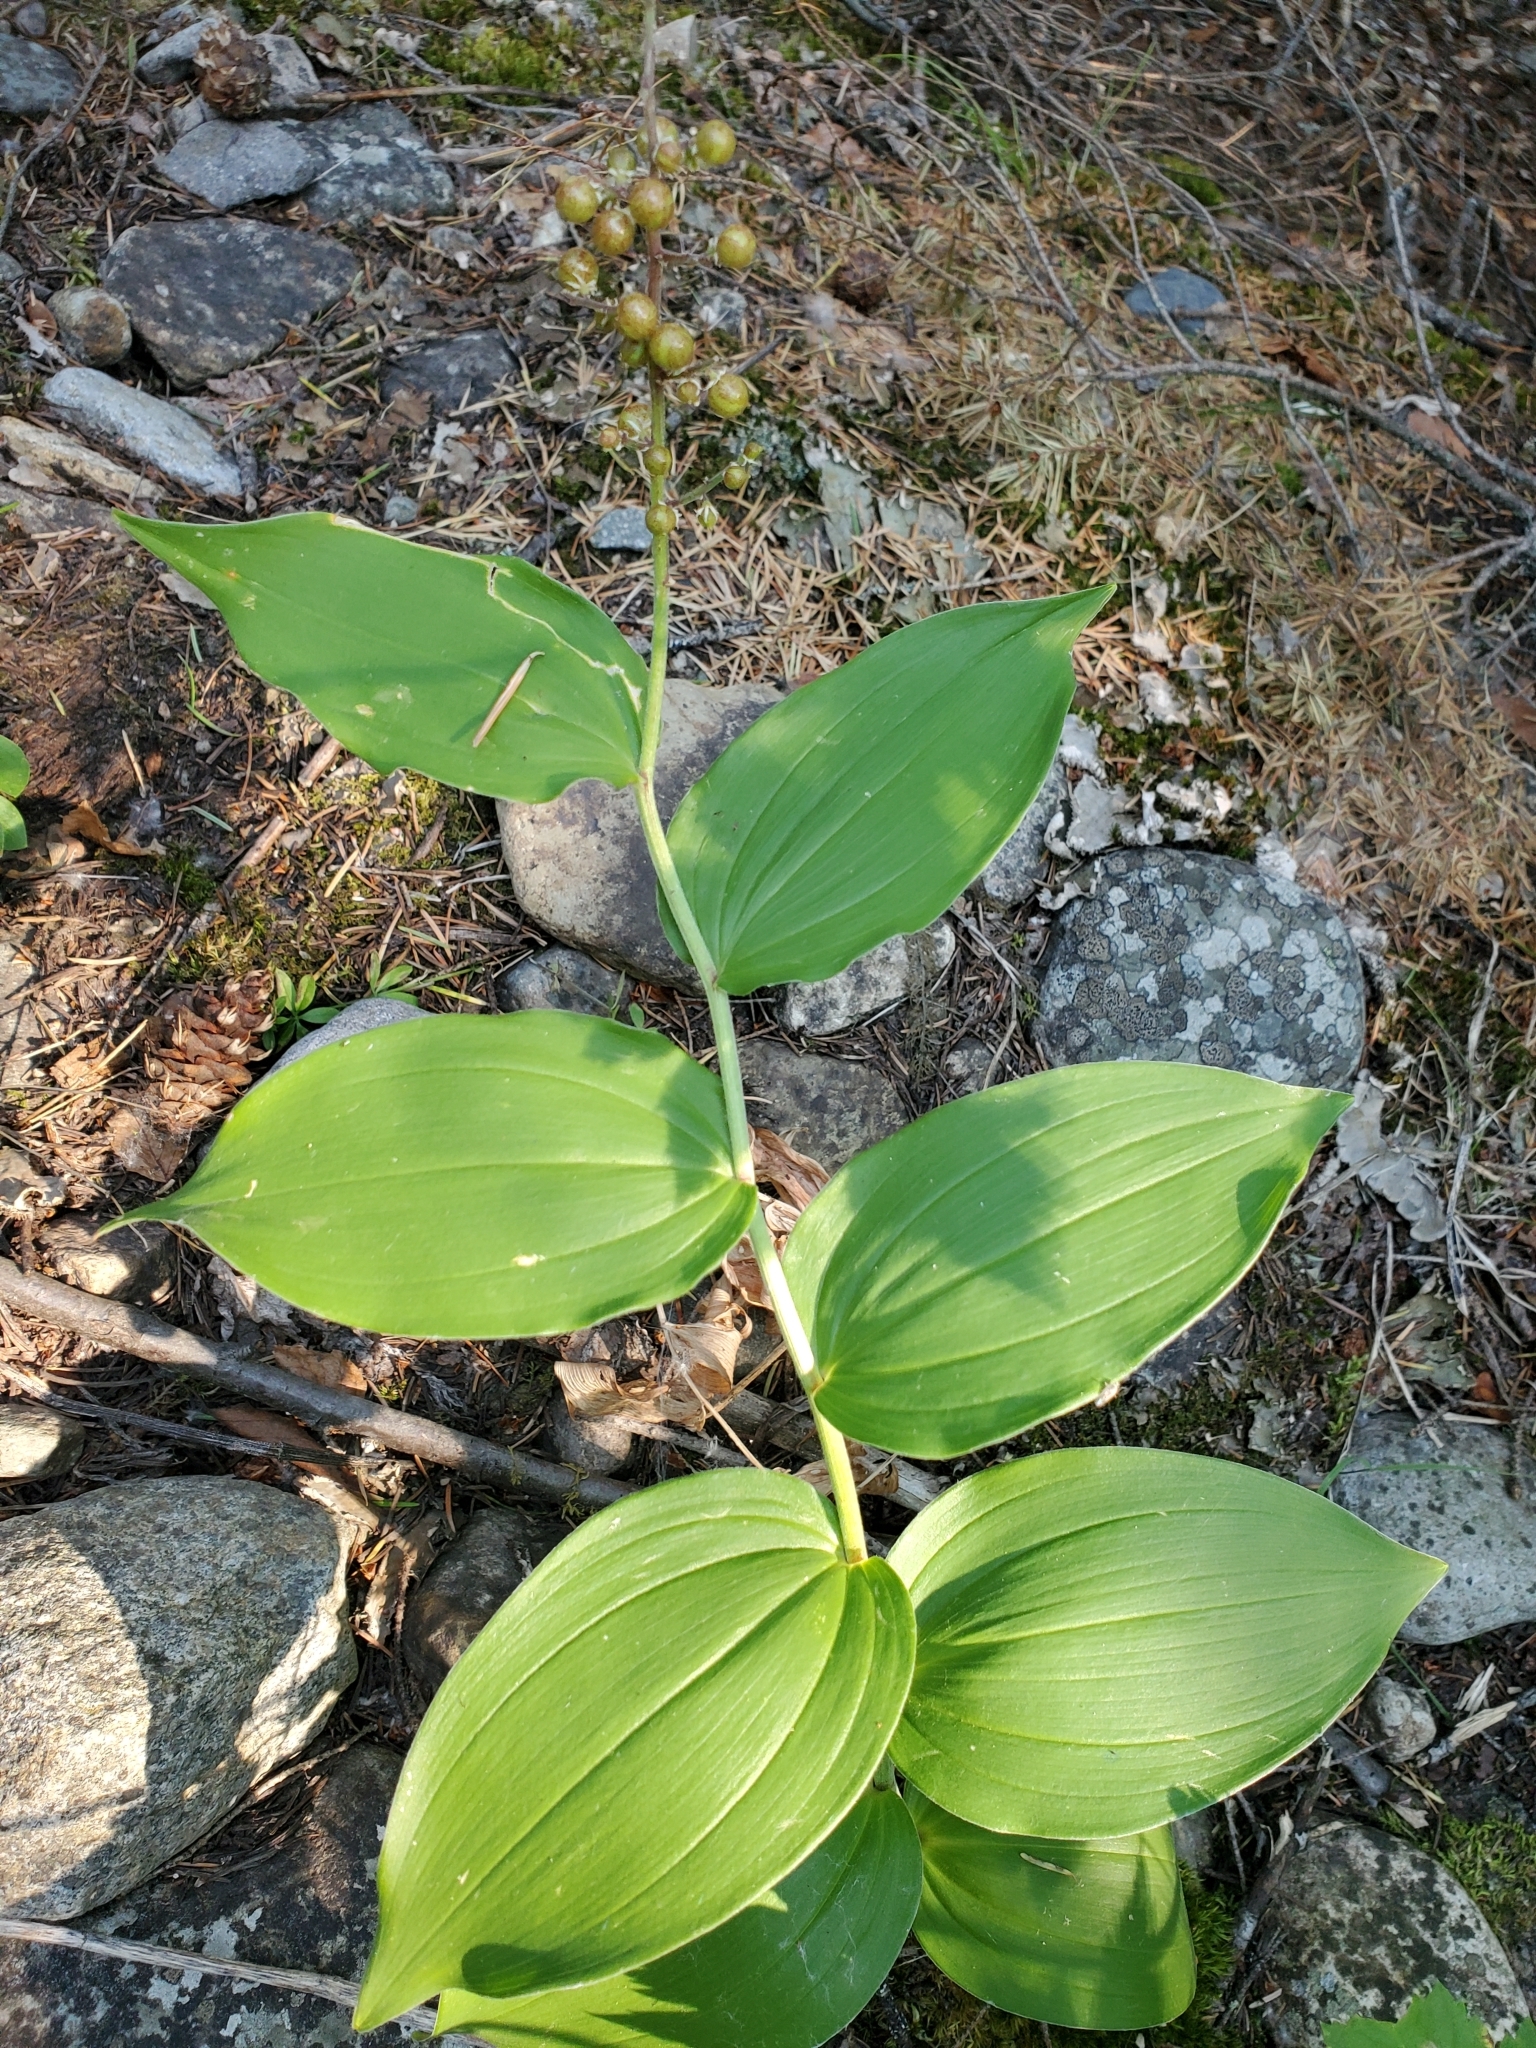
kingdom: Plantae
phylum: Tracheophyta
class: Liliopsida
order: Asparagales
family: Asparagaceae
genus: Maianthemum
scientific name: Maianthemum racemosum
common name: False spikenard
